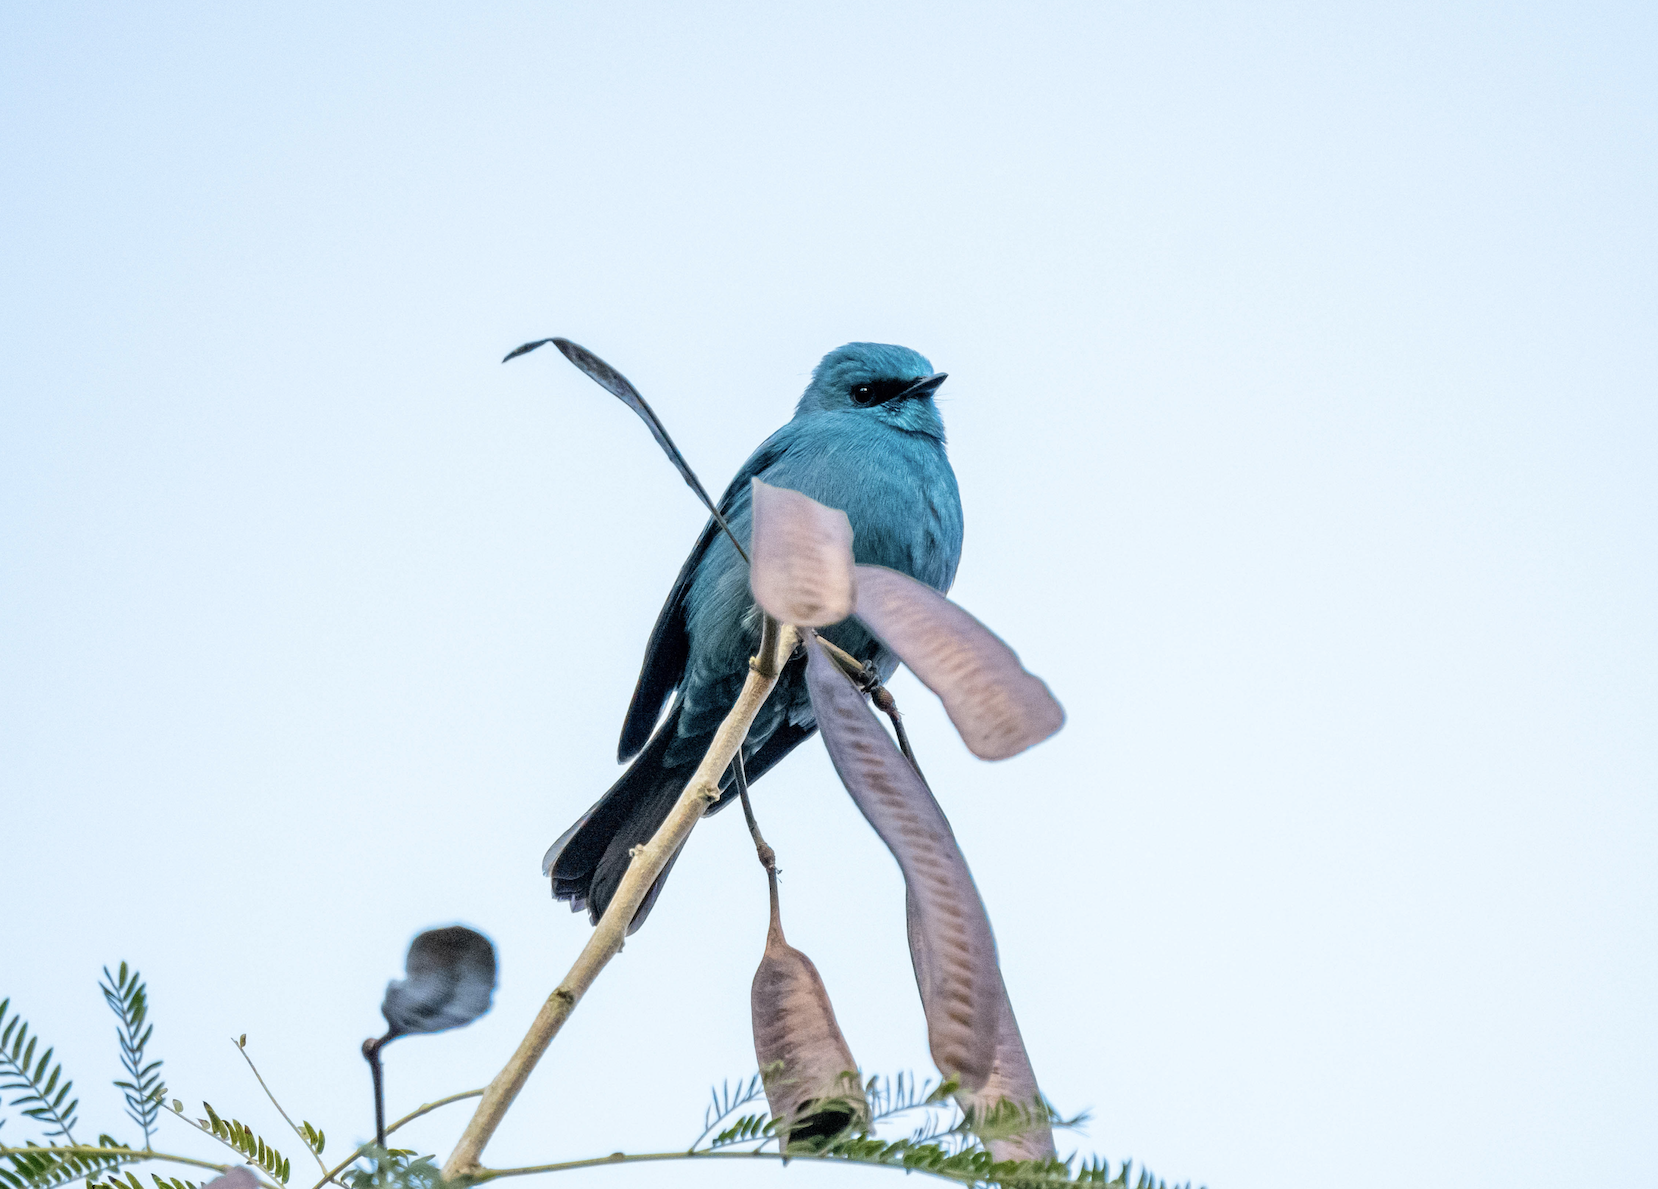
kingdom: Animalia
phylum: Chordata
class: Aves
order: Passeriformes
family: Muscicapidae
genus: Eumyias
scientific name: Eumyias thalassinus
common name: Verditer flycatcher
